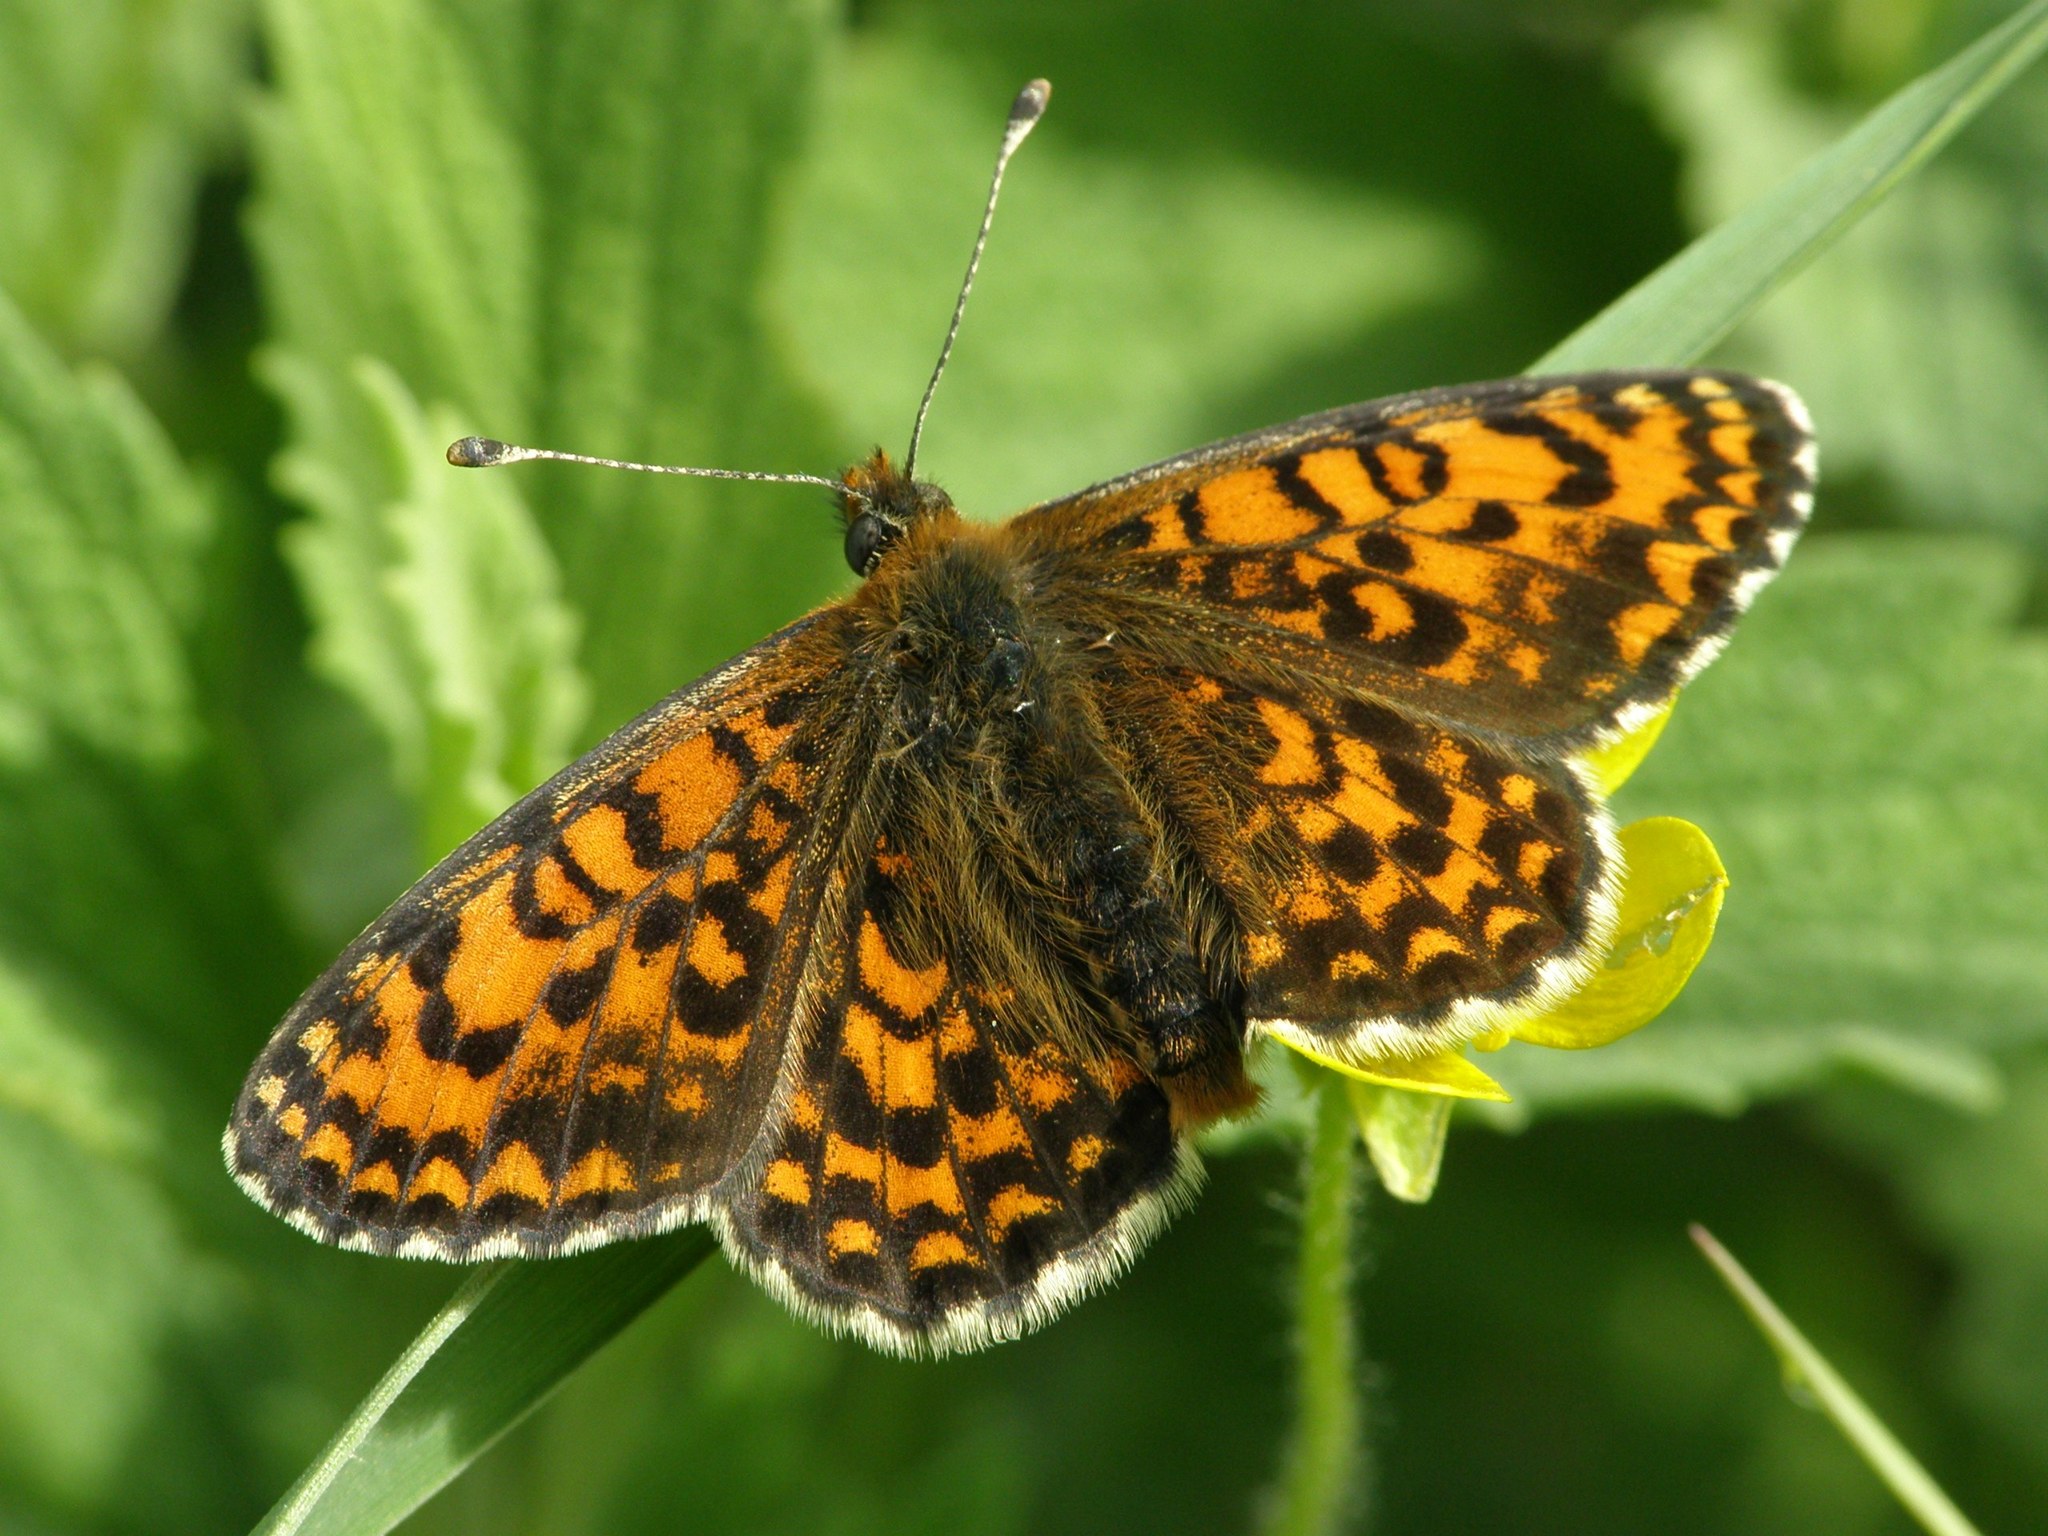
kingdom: Animalia
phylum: Arthropoda
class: Insecta
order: Lepidoptera
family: Nymphalidae
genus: Melitaea
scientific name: Melitaea trivia
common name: Lesser spotted fritillary
